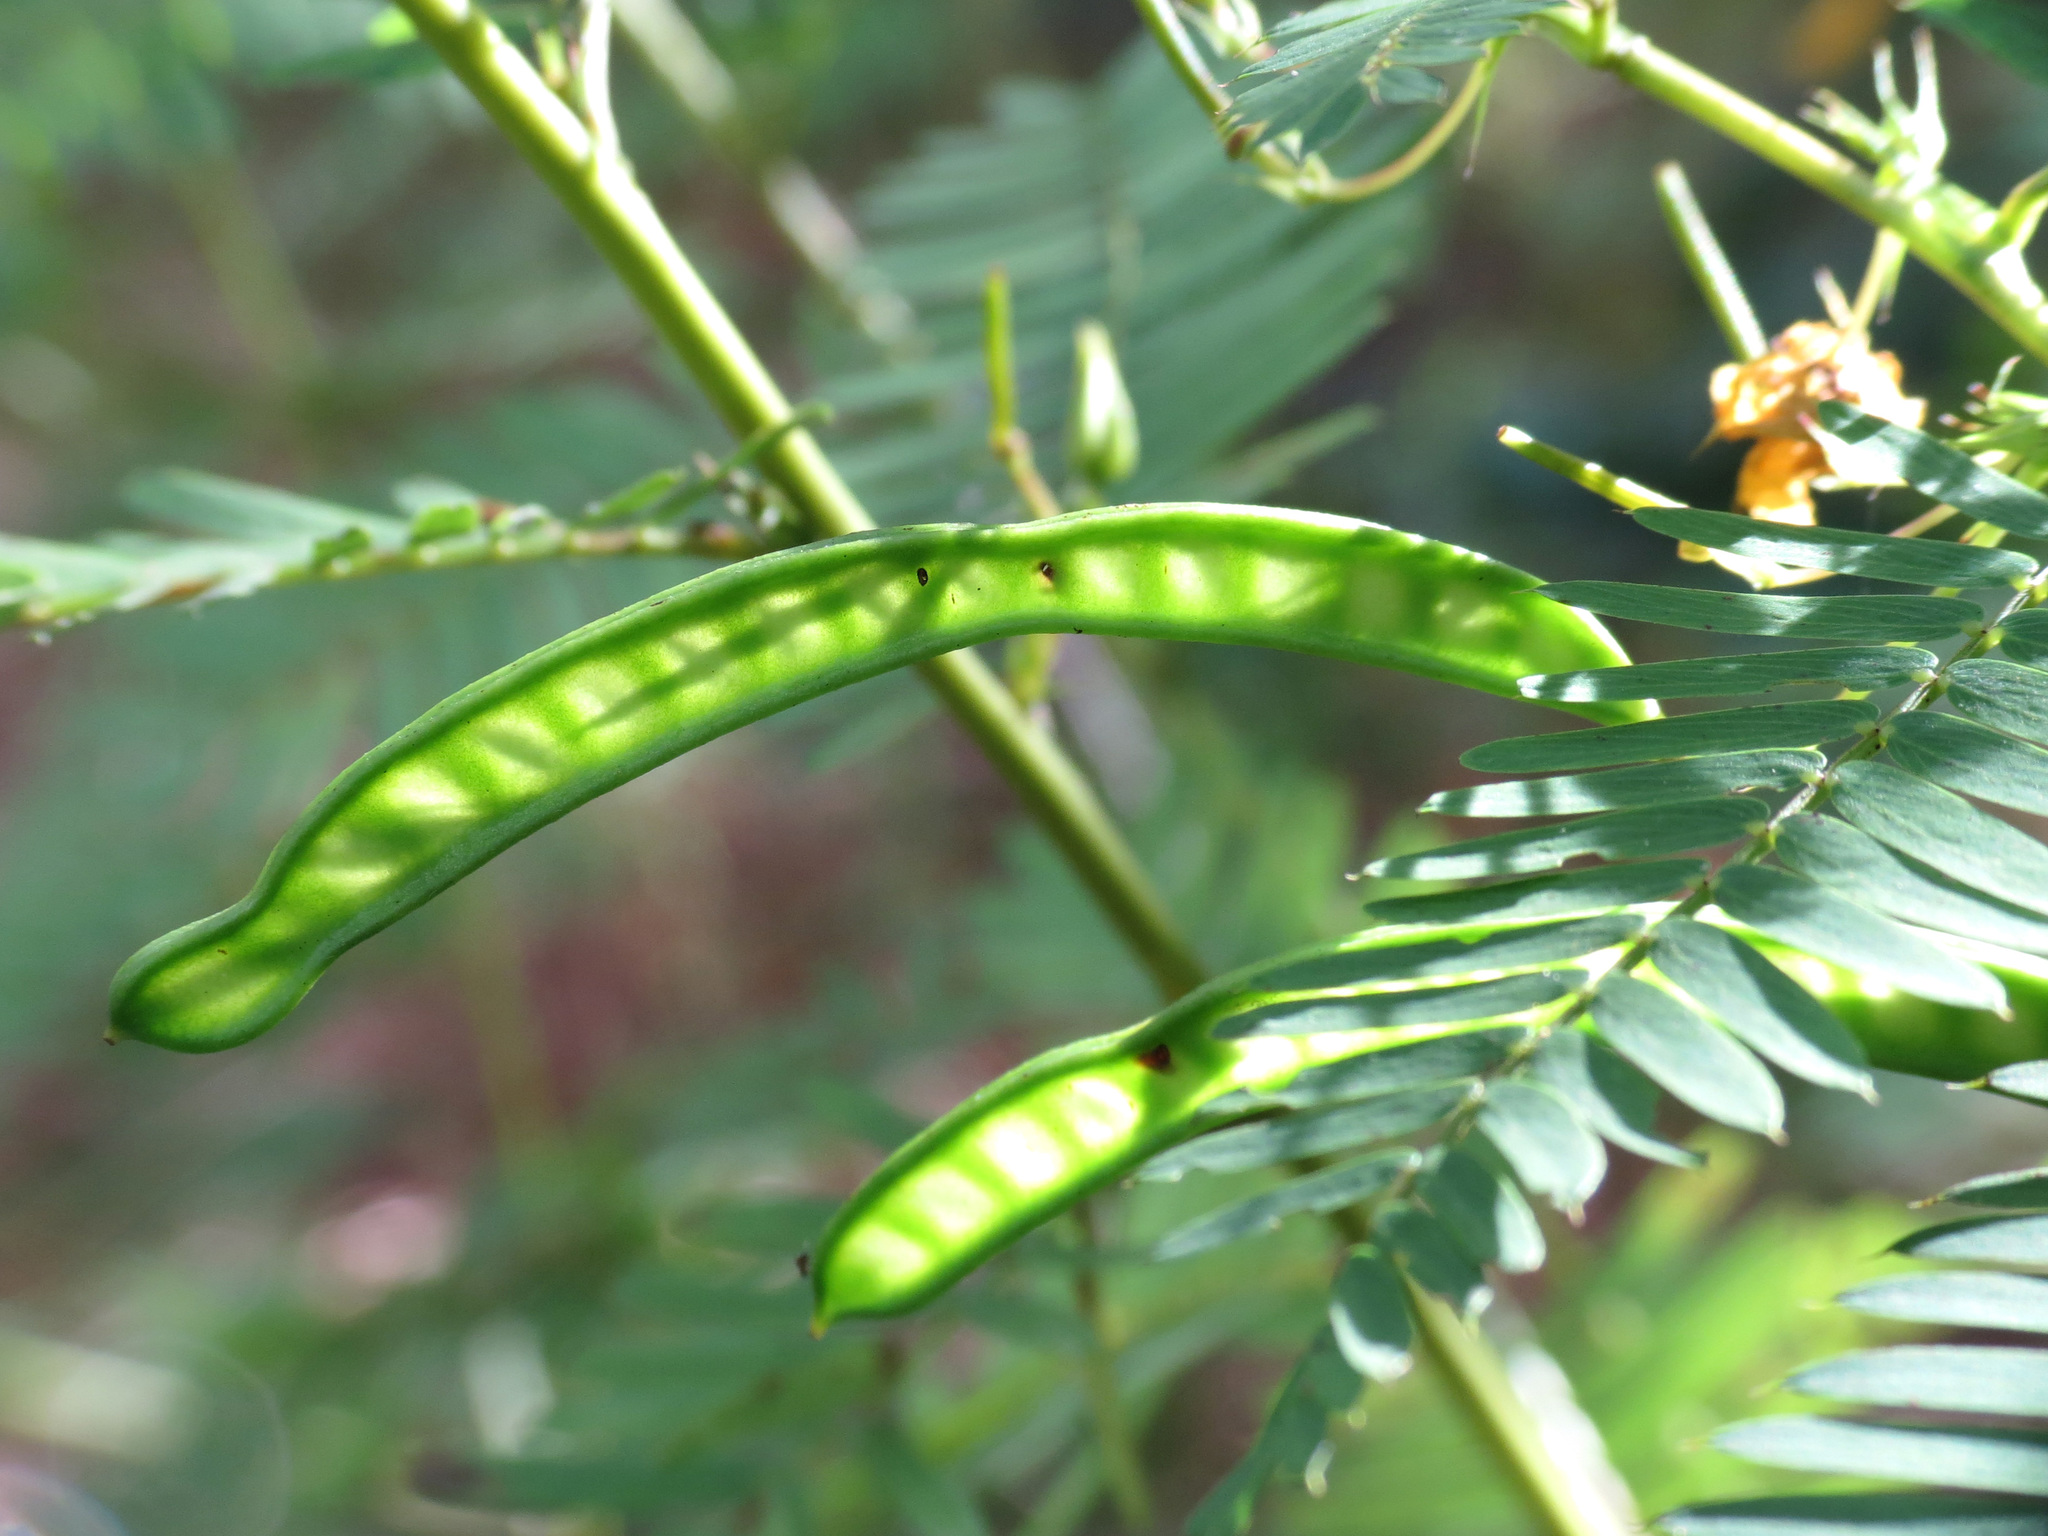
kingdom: Plantae
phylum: Tracheophyta
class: Magnoliopsida
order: Fabales
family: Fabaceae
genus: Chamaecrista
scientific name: Chamaecrista fasciculata
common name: Golden cassia
